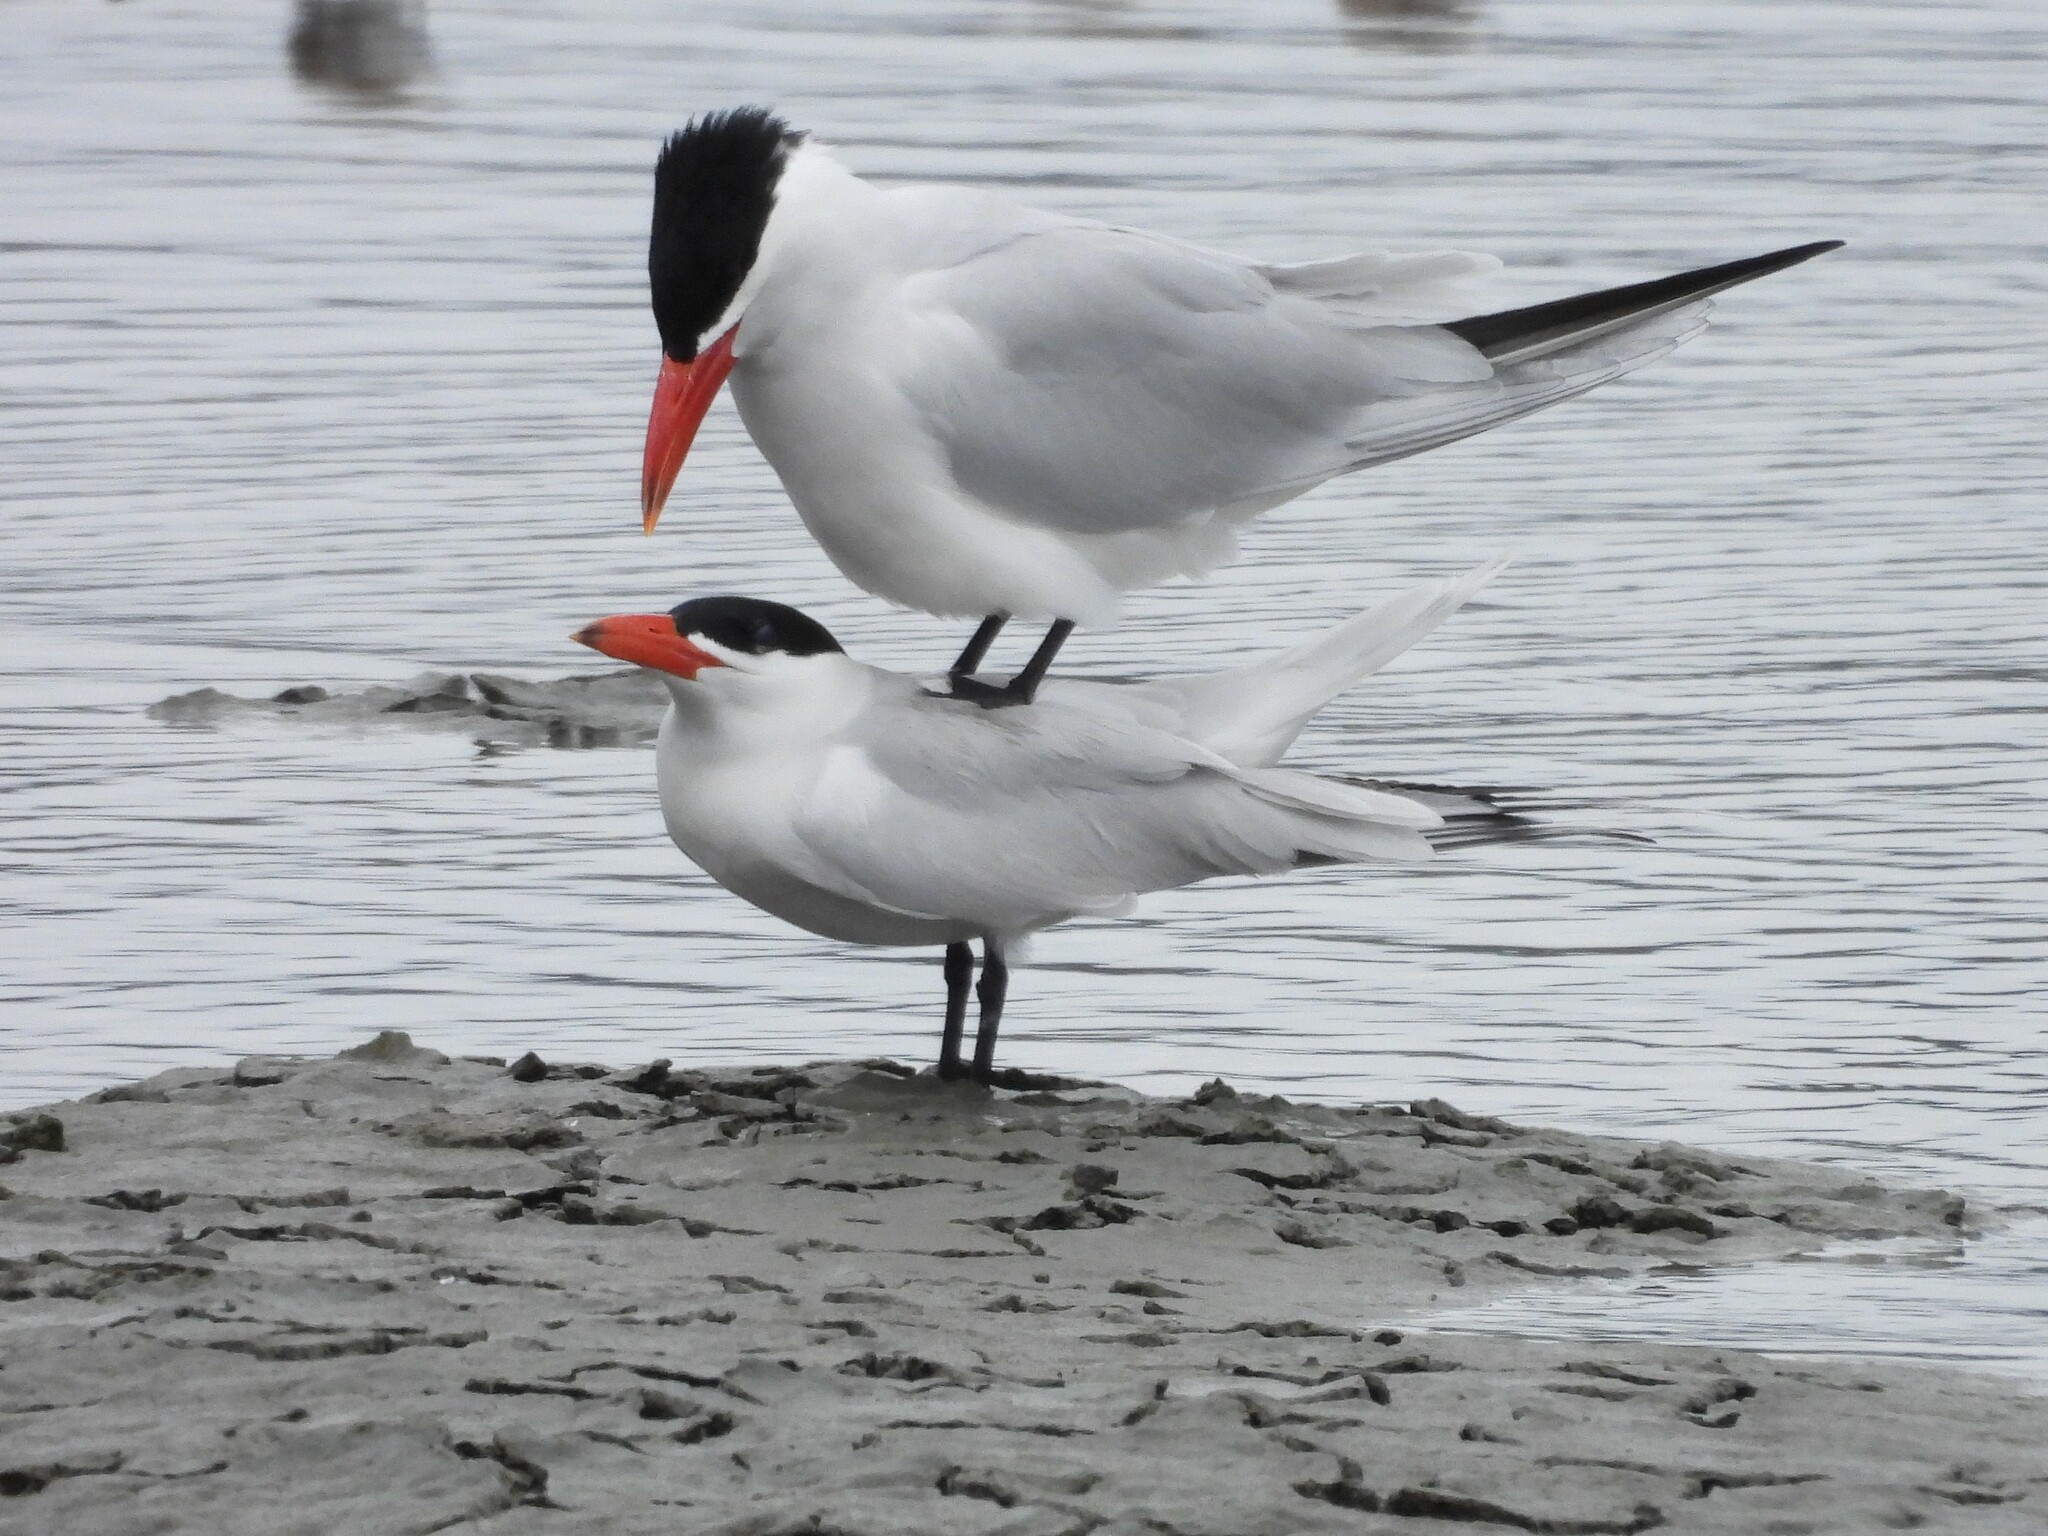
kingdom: Animalia
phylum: Chordata
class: Aves
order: Charadriiformes
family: Laridae
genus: Hydroprogne
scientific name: Hydroprogne caspia
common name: Caspian tern
